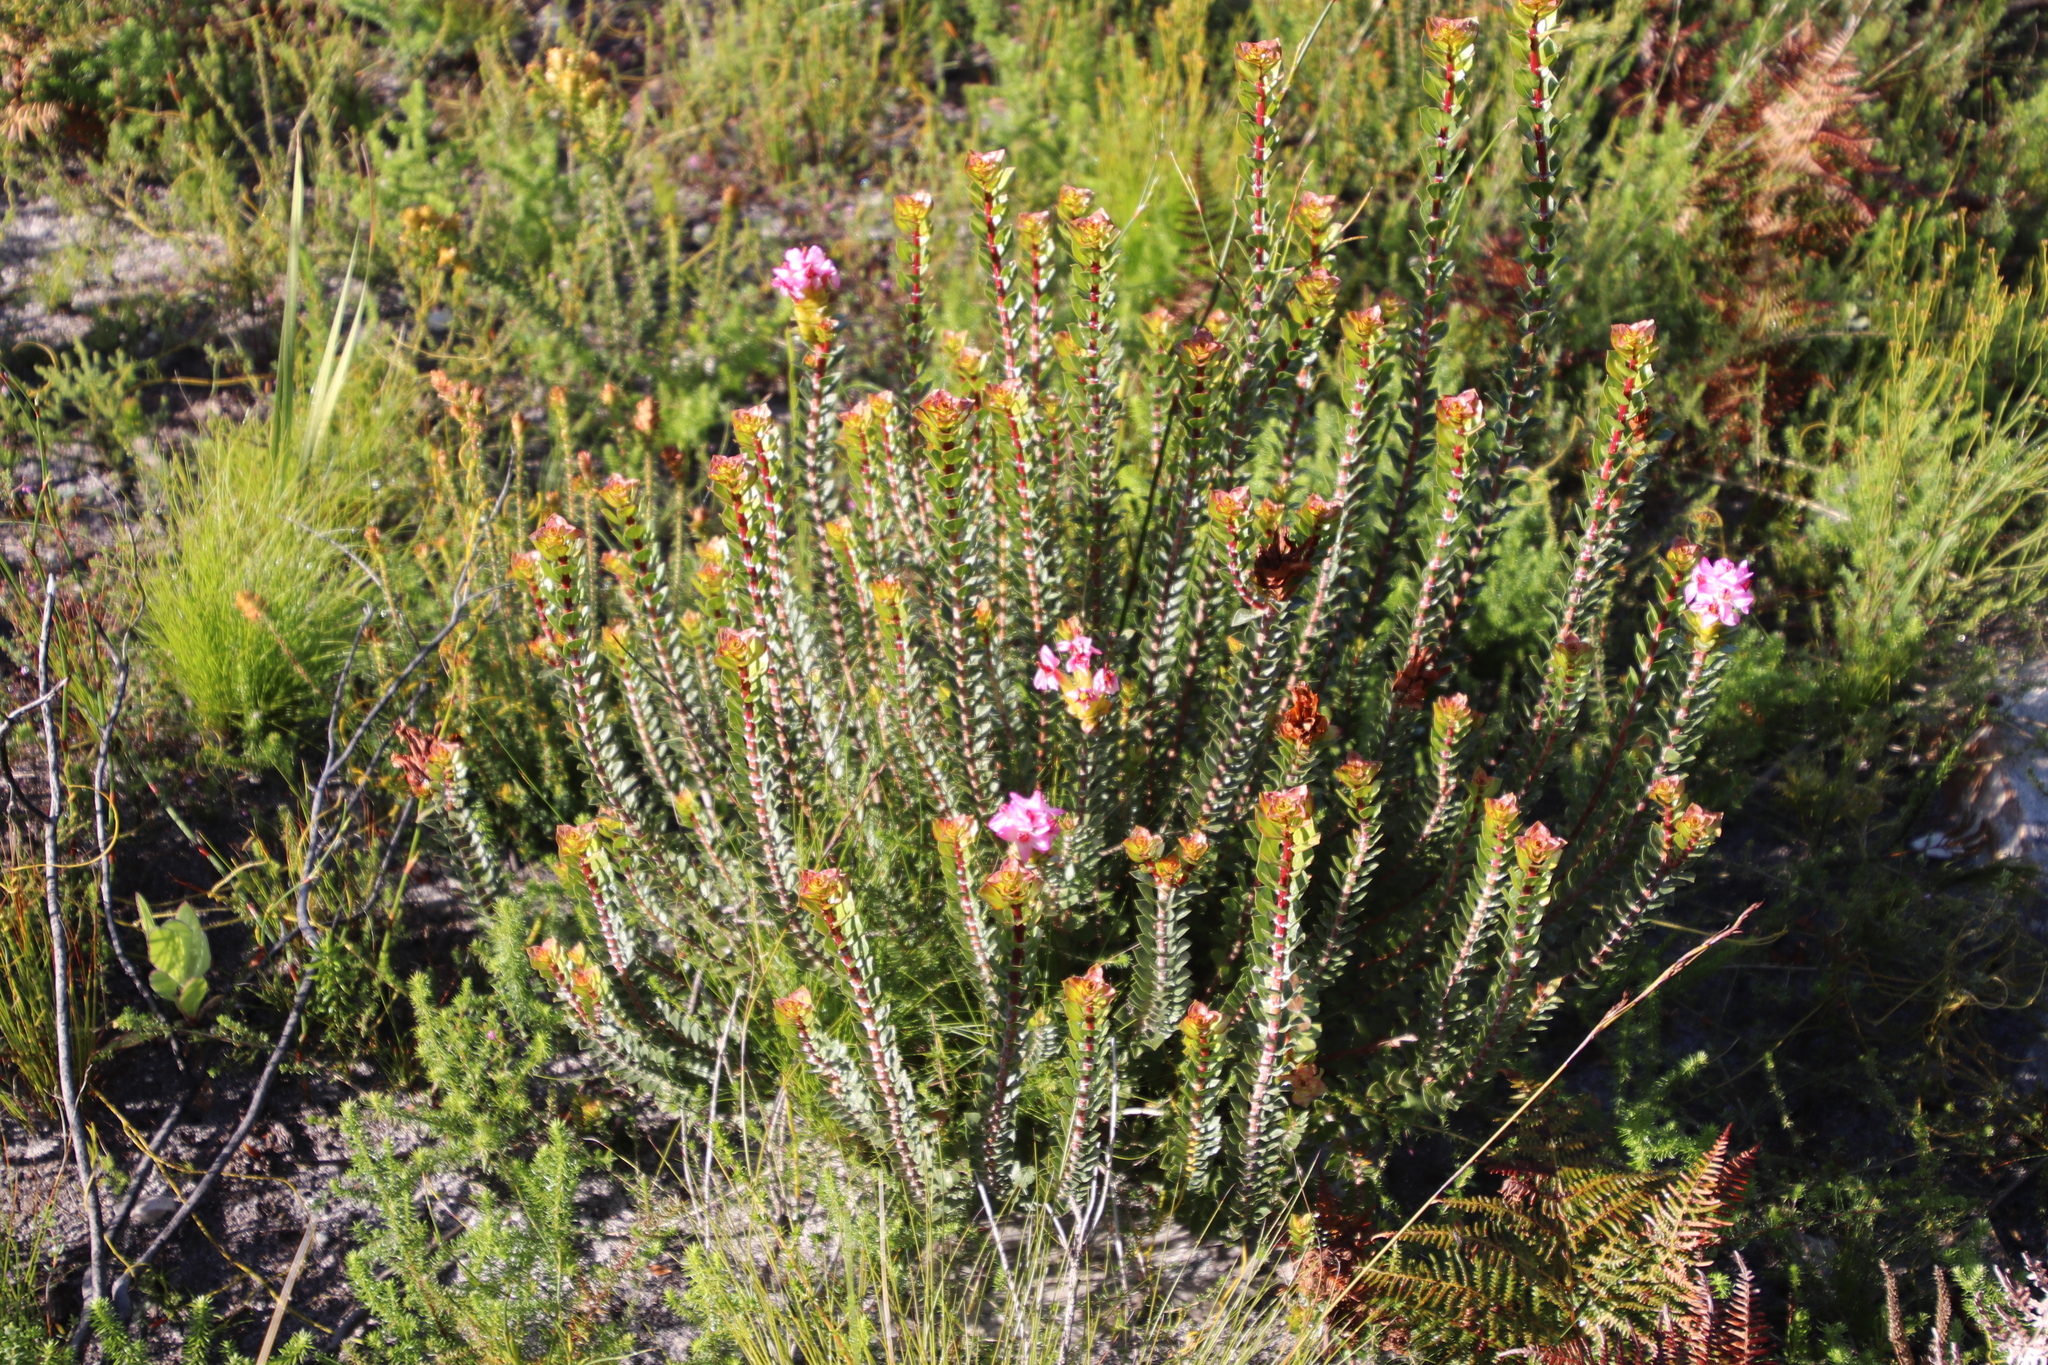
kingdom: Plantae
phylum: Tracheophyta
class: Magnoliopsida
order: Myrtales
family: Penaeaceae
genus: Saltera
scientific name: Saltera sarcocolla
